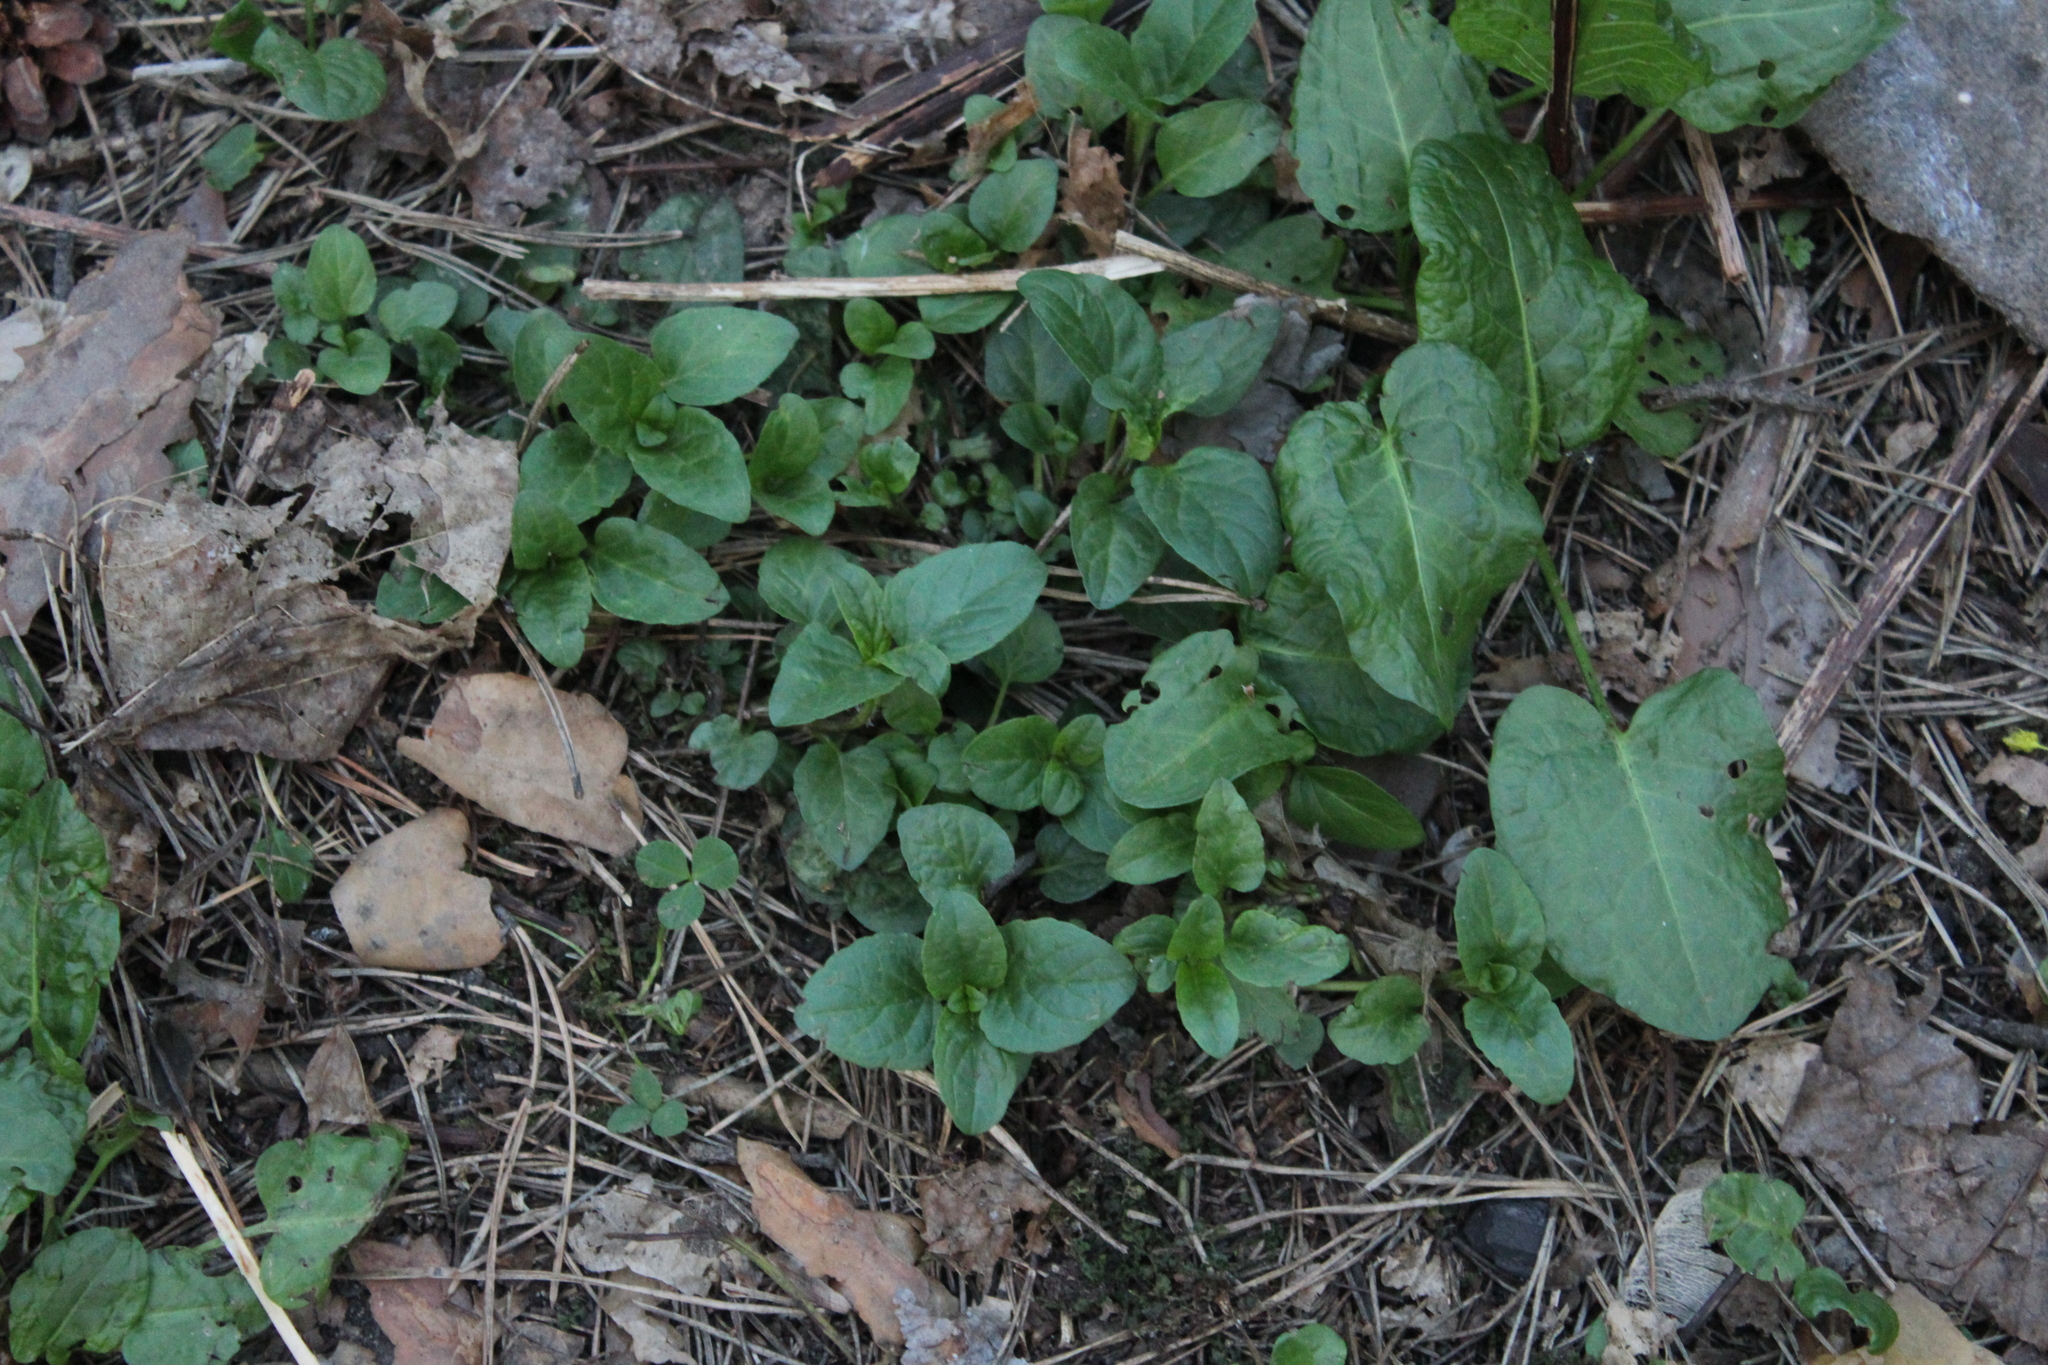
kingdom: Plantae
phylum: Tracheophyta
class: Magnoliopsida
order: Lamiales
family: Lamiaceae
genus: Prunella
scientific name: Prunella vulgaris
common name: Heal-all
